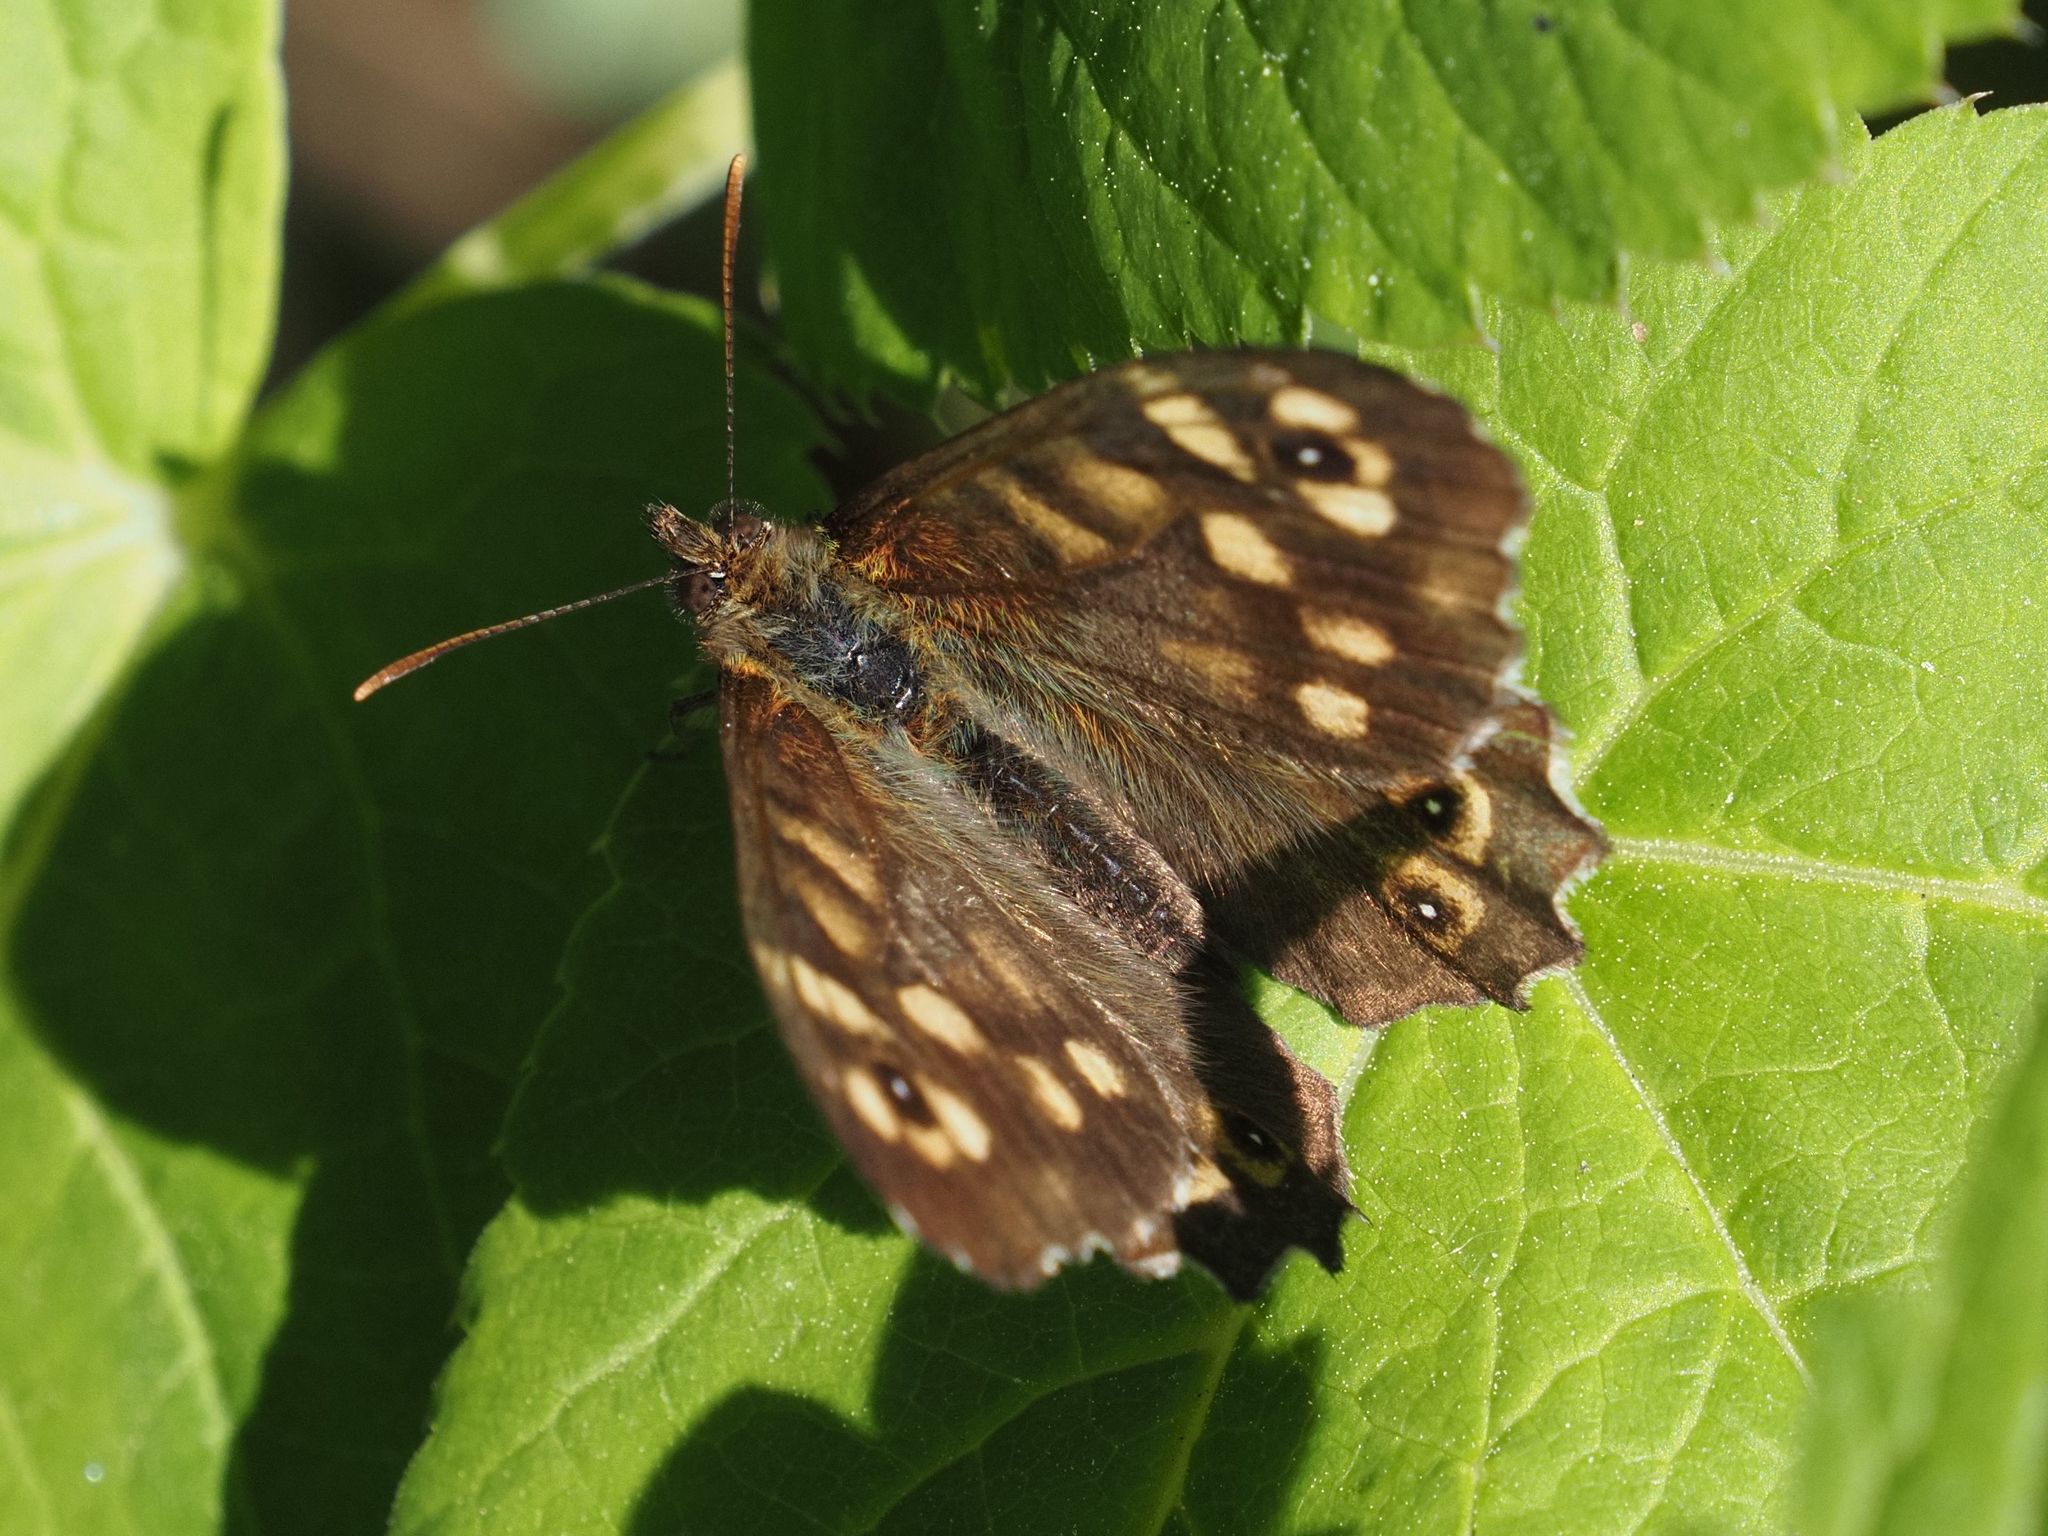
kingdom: Animalia
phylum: Arthropoda
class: Insecta
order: Lepidoptera
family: Nymphalidae
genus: Pararge
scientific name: Pararge aegeria
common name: Speckled wood
